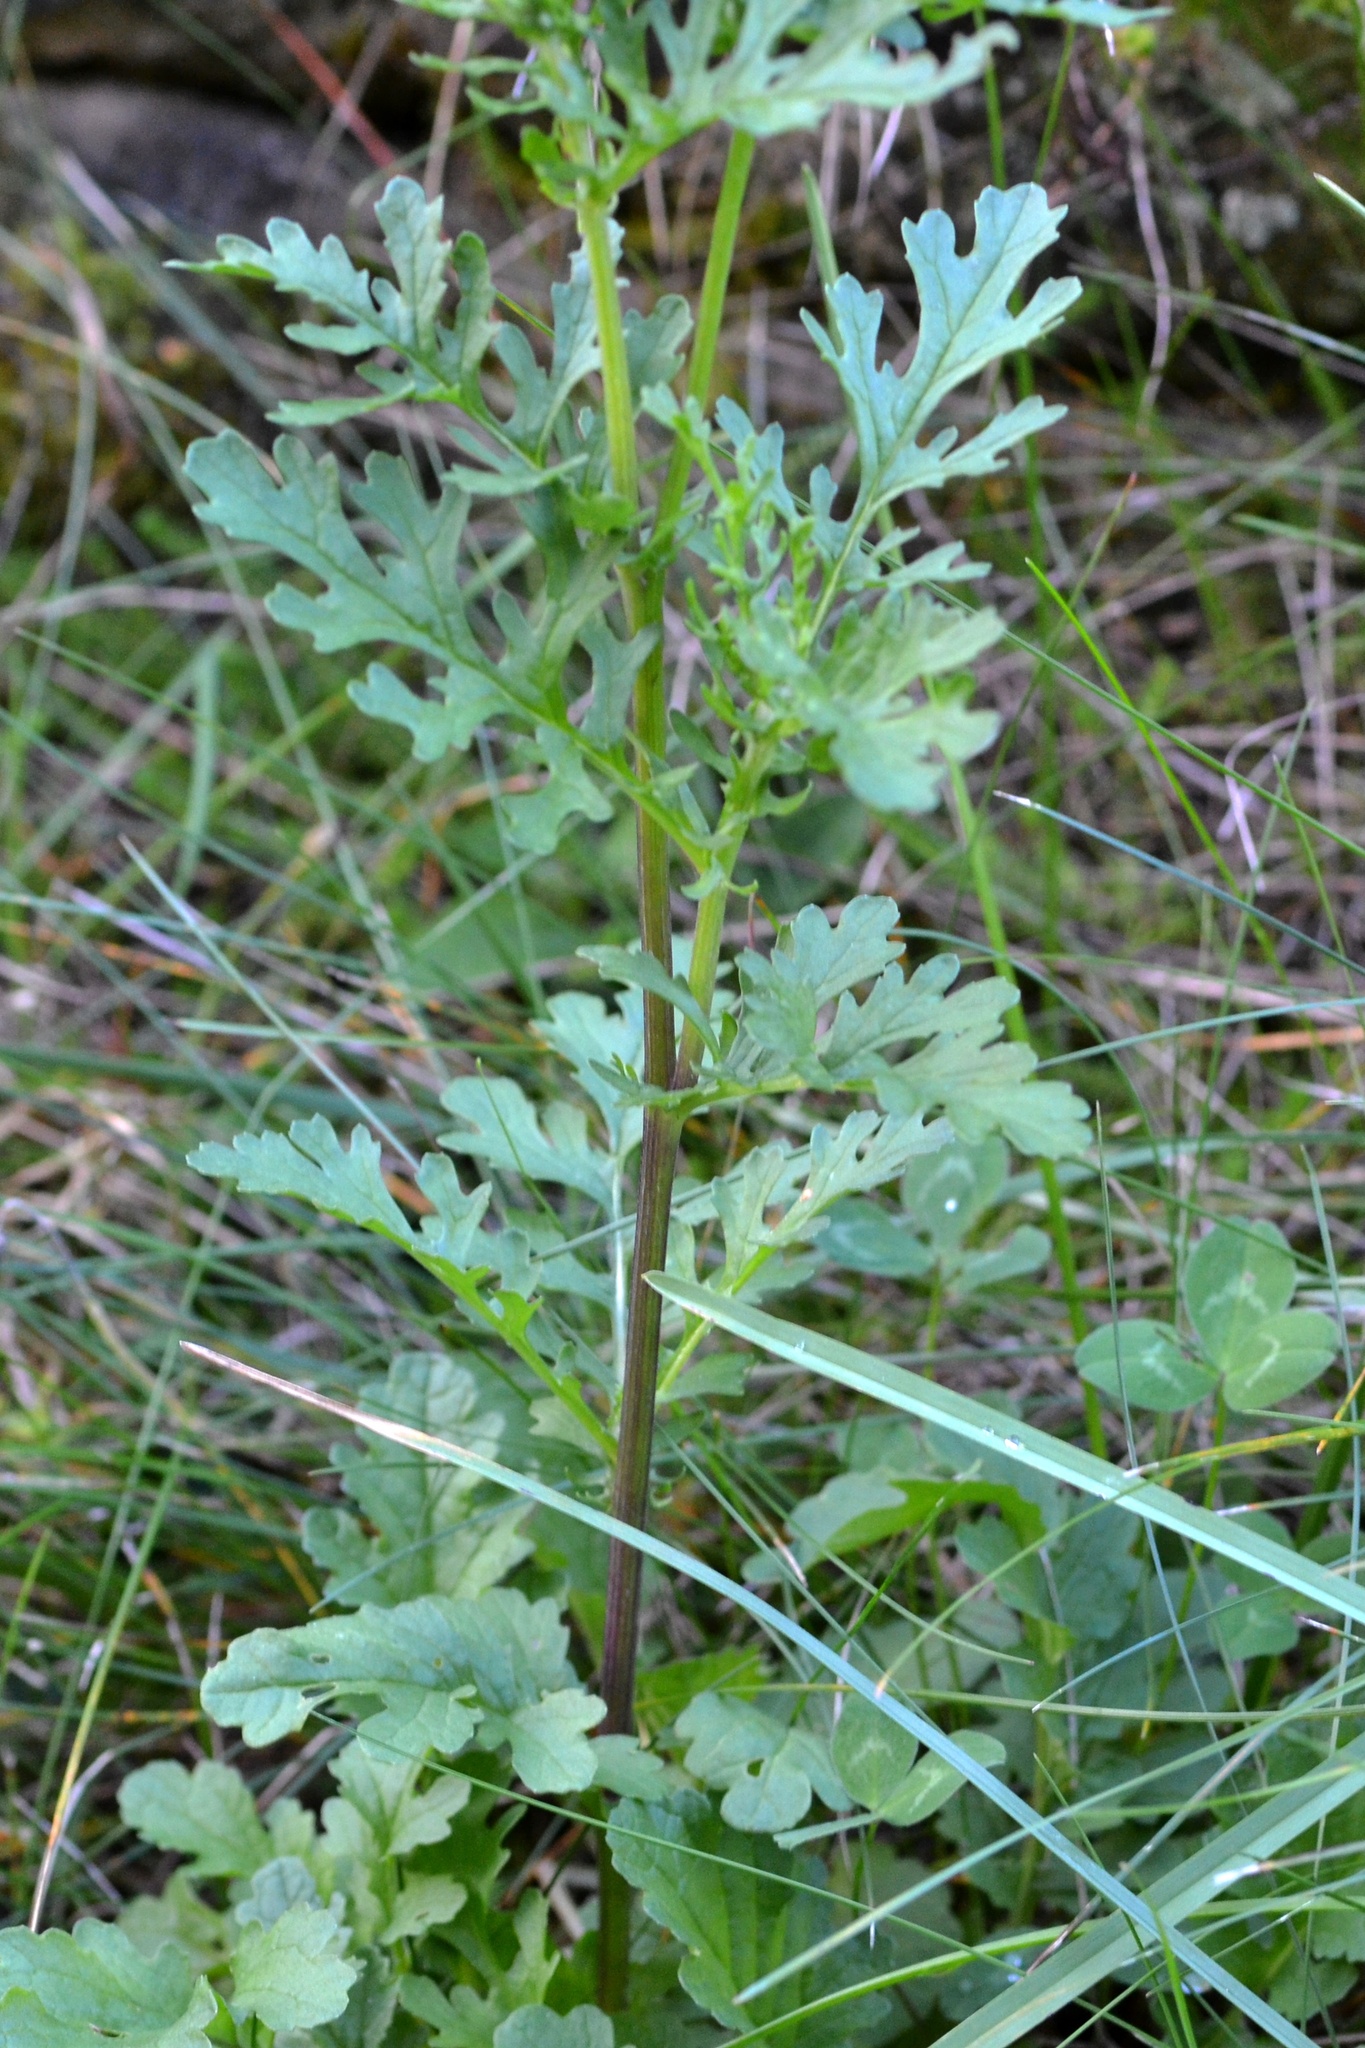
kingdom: Plantae
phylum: Tracheophyta
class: Magnoliopsida
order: Asterales
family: Asteraceae
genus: Jacobaea
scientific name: Jacobaea vulgaris
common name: Stinking willie
